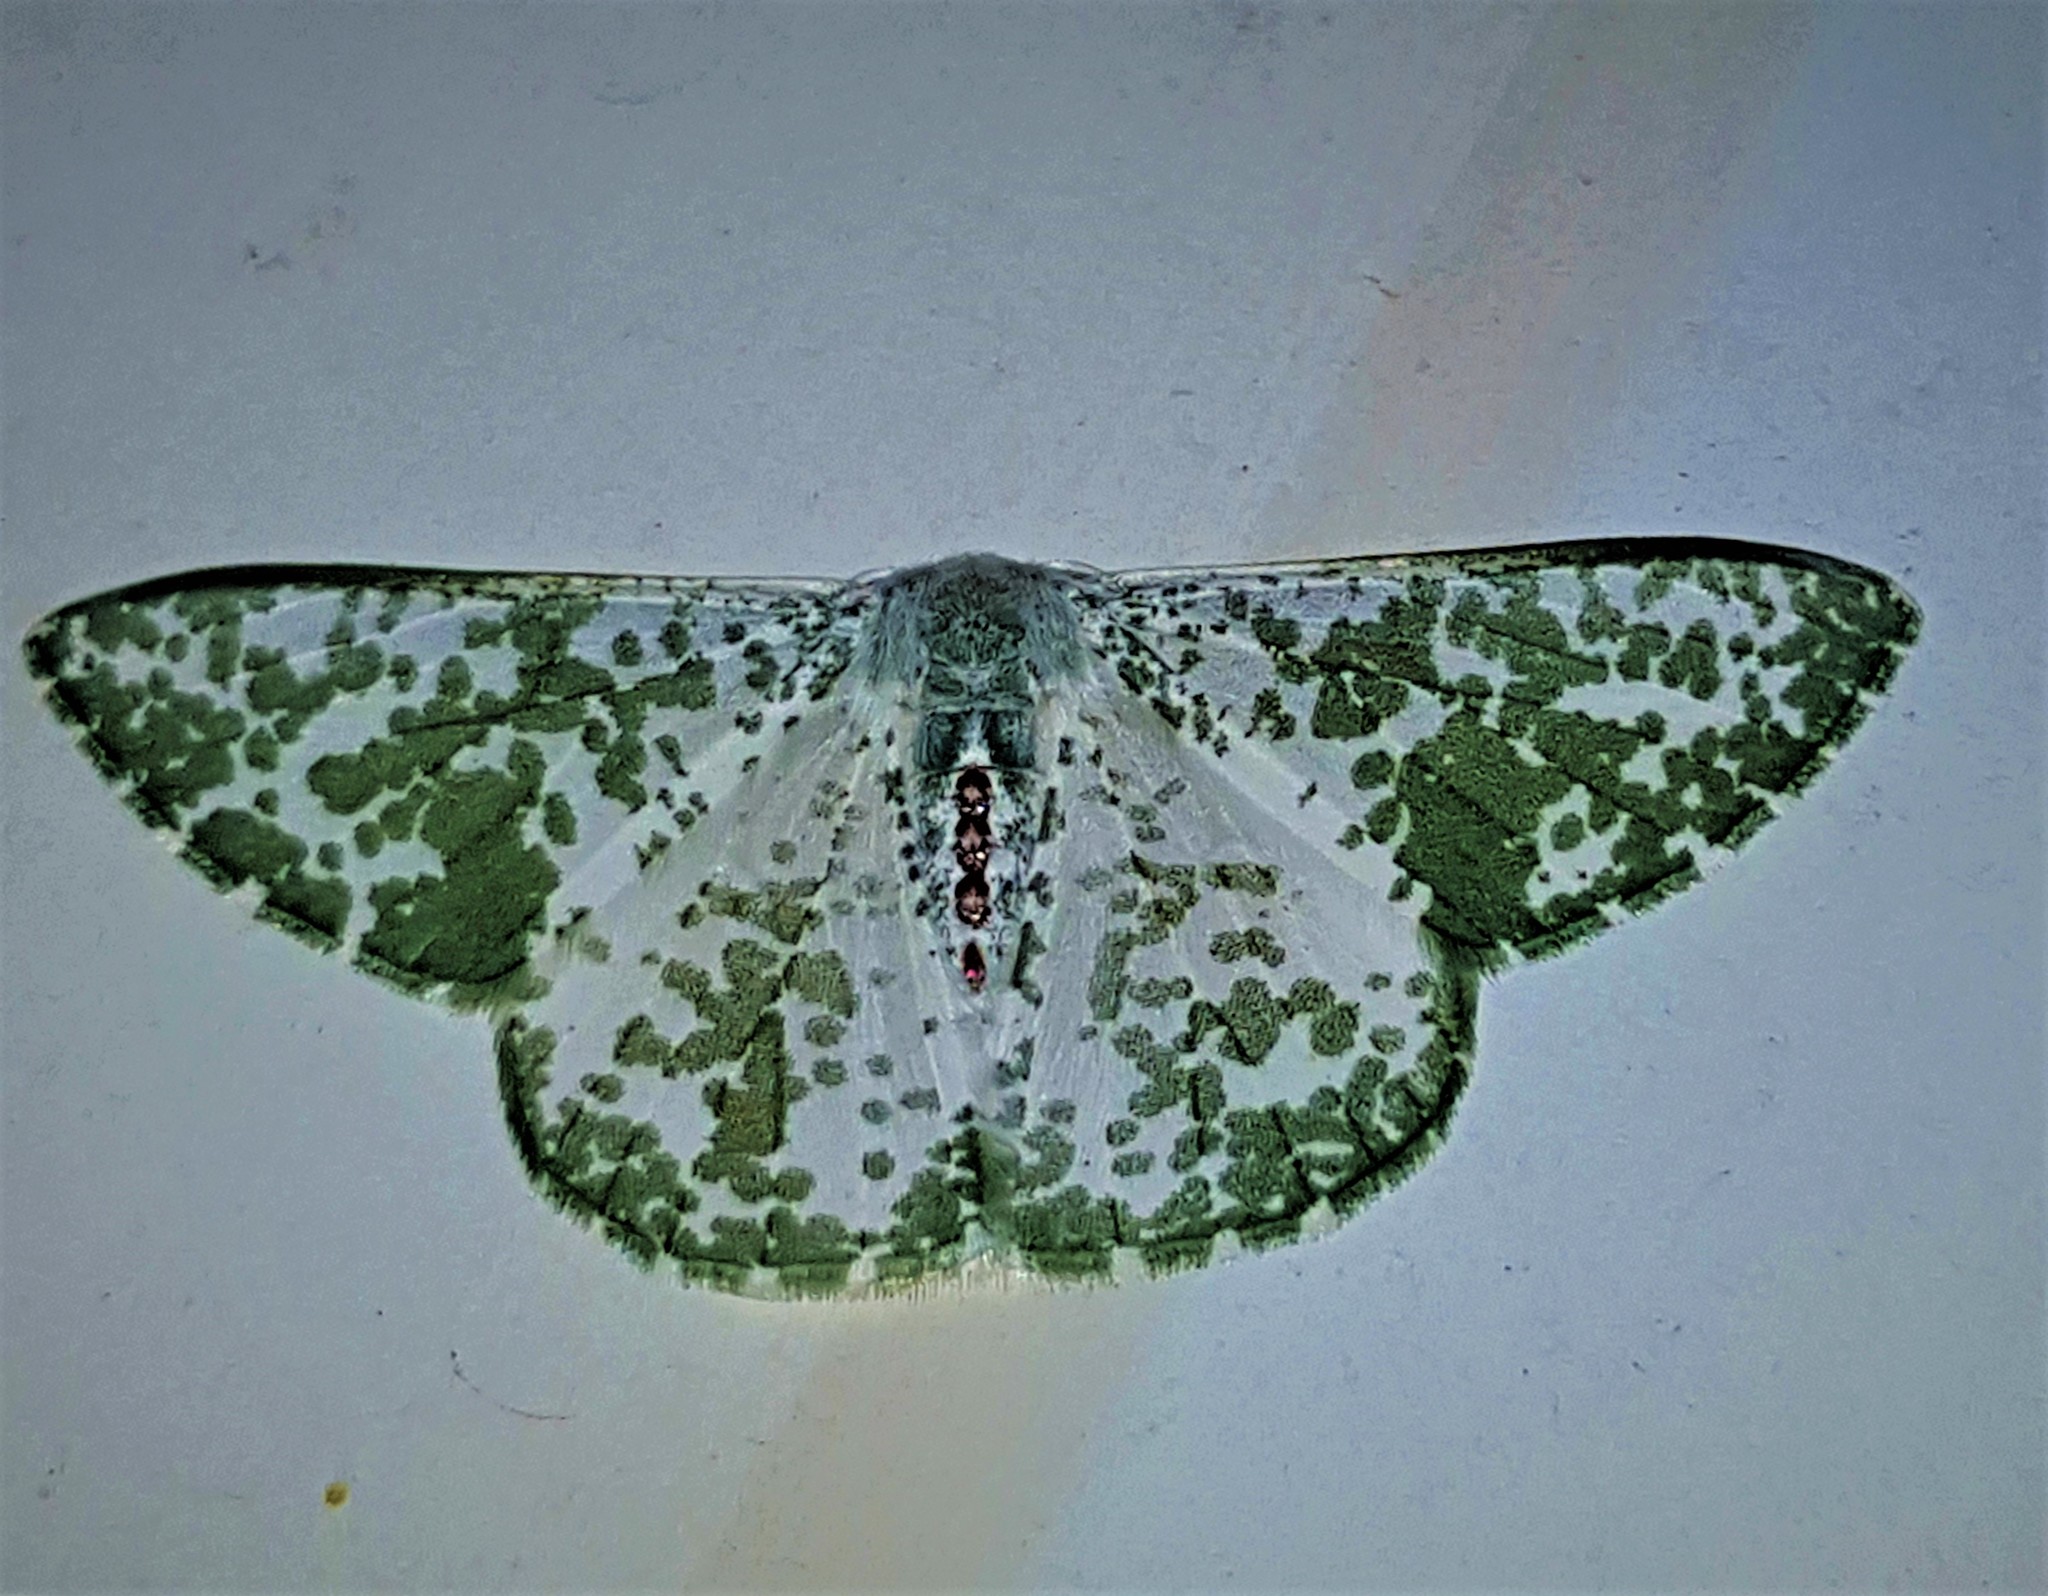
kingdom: Animalia
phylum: Arthropoda
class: Insecta
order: Lepidoptera
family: Geometridae
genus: Oospila
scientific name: Oospila sporadata
